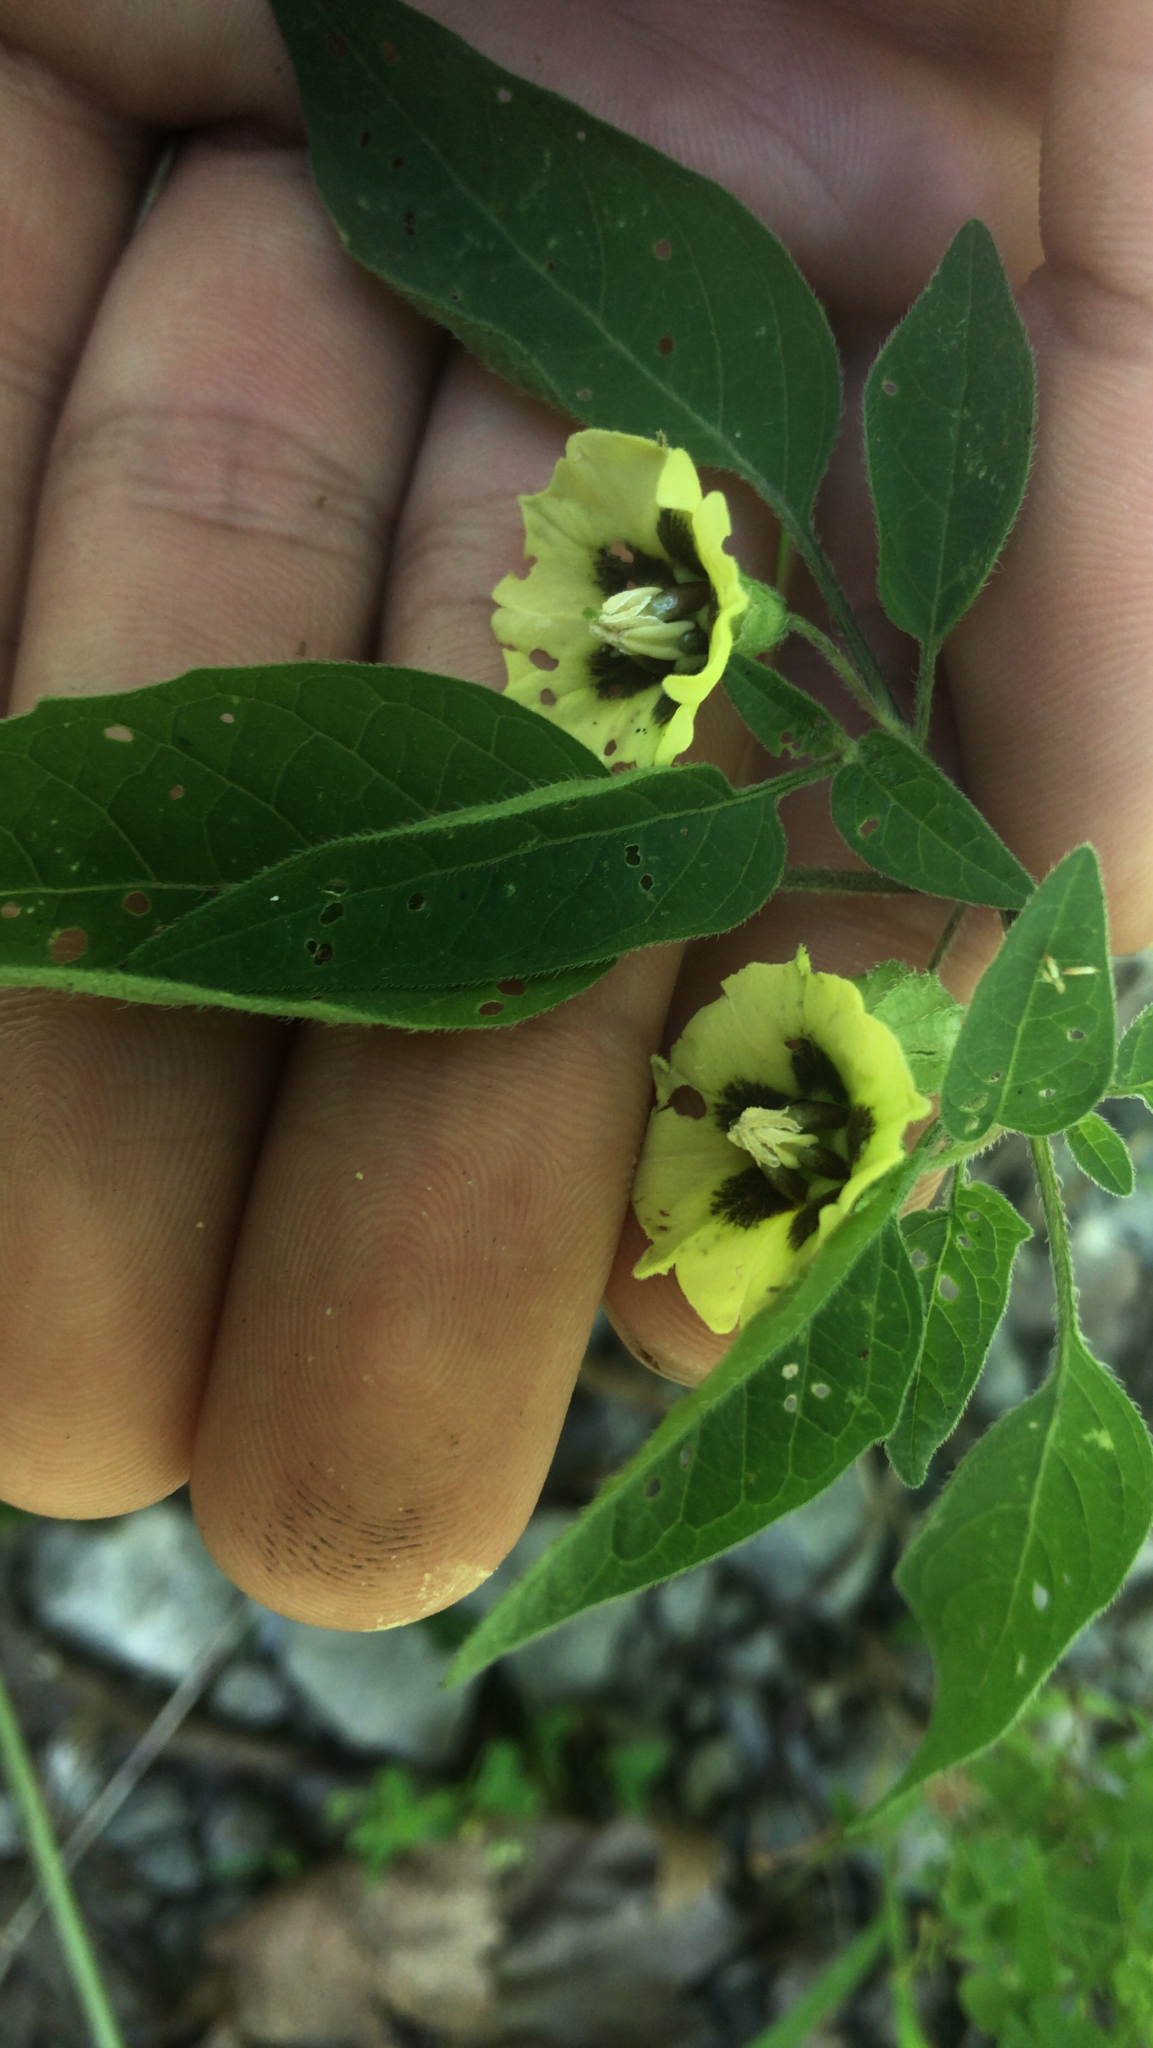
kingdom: Plantae
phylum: Tracheophyta
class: Magnoliopsida
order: Solanales
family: Solanaceae
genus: Physalis
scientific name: Physalis longifolia
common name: Common ground-cherry
